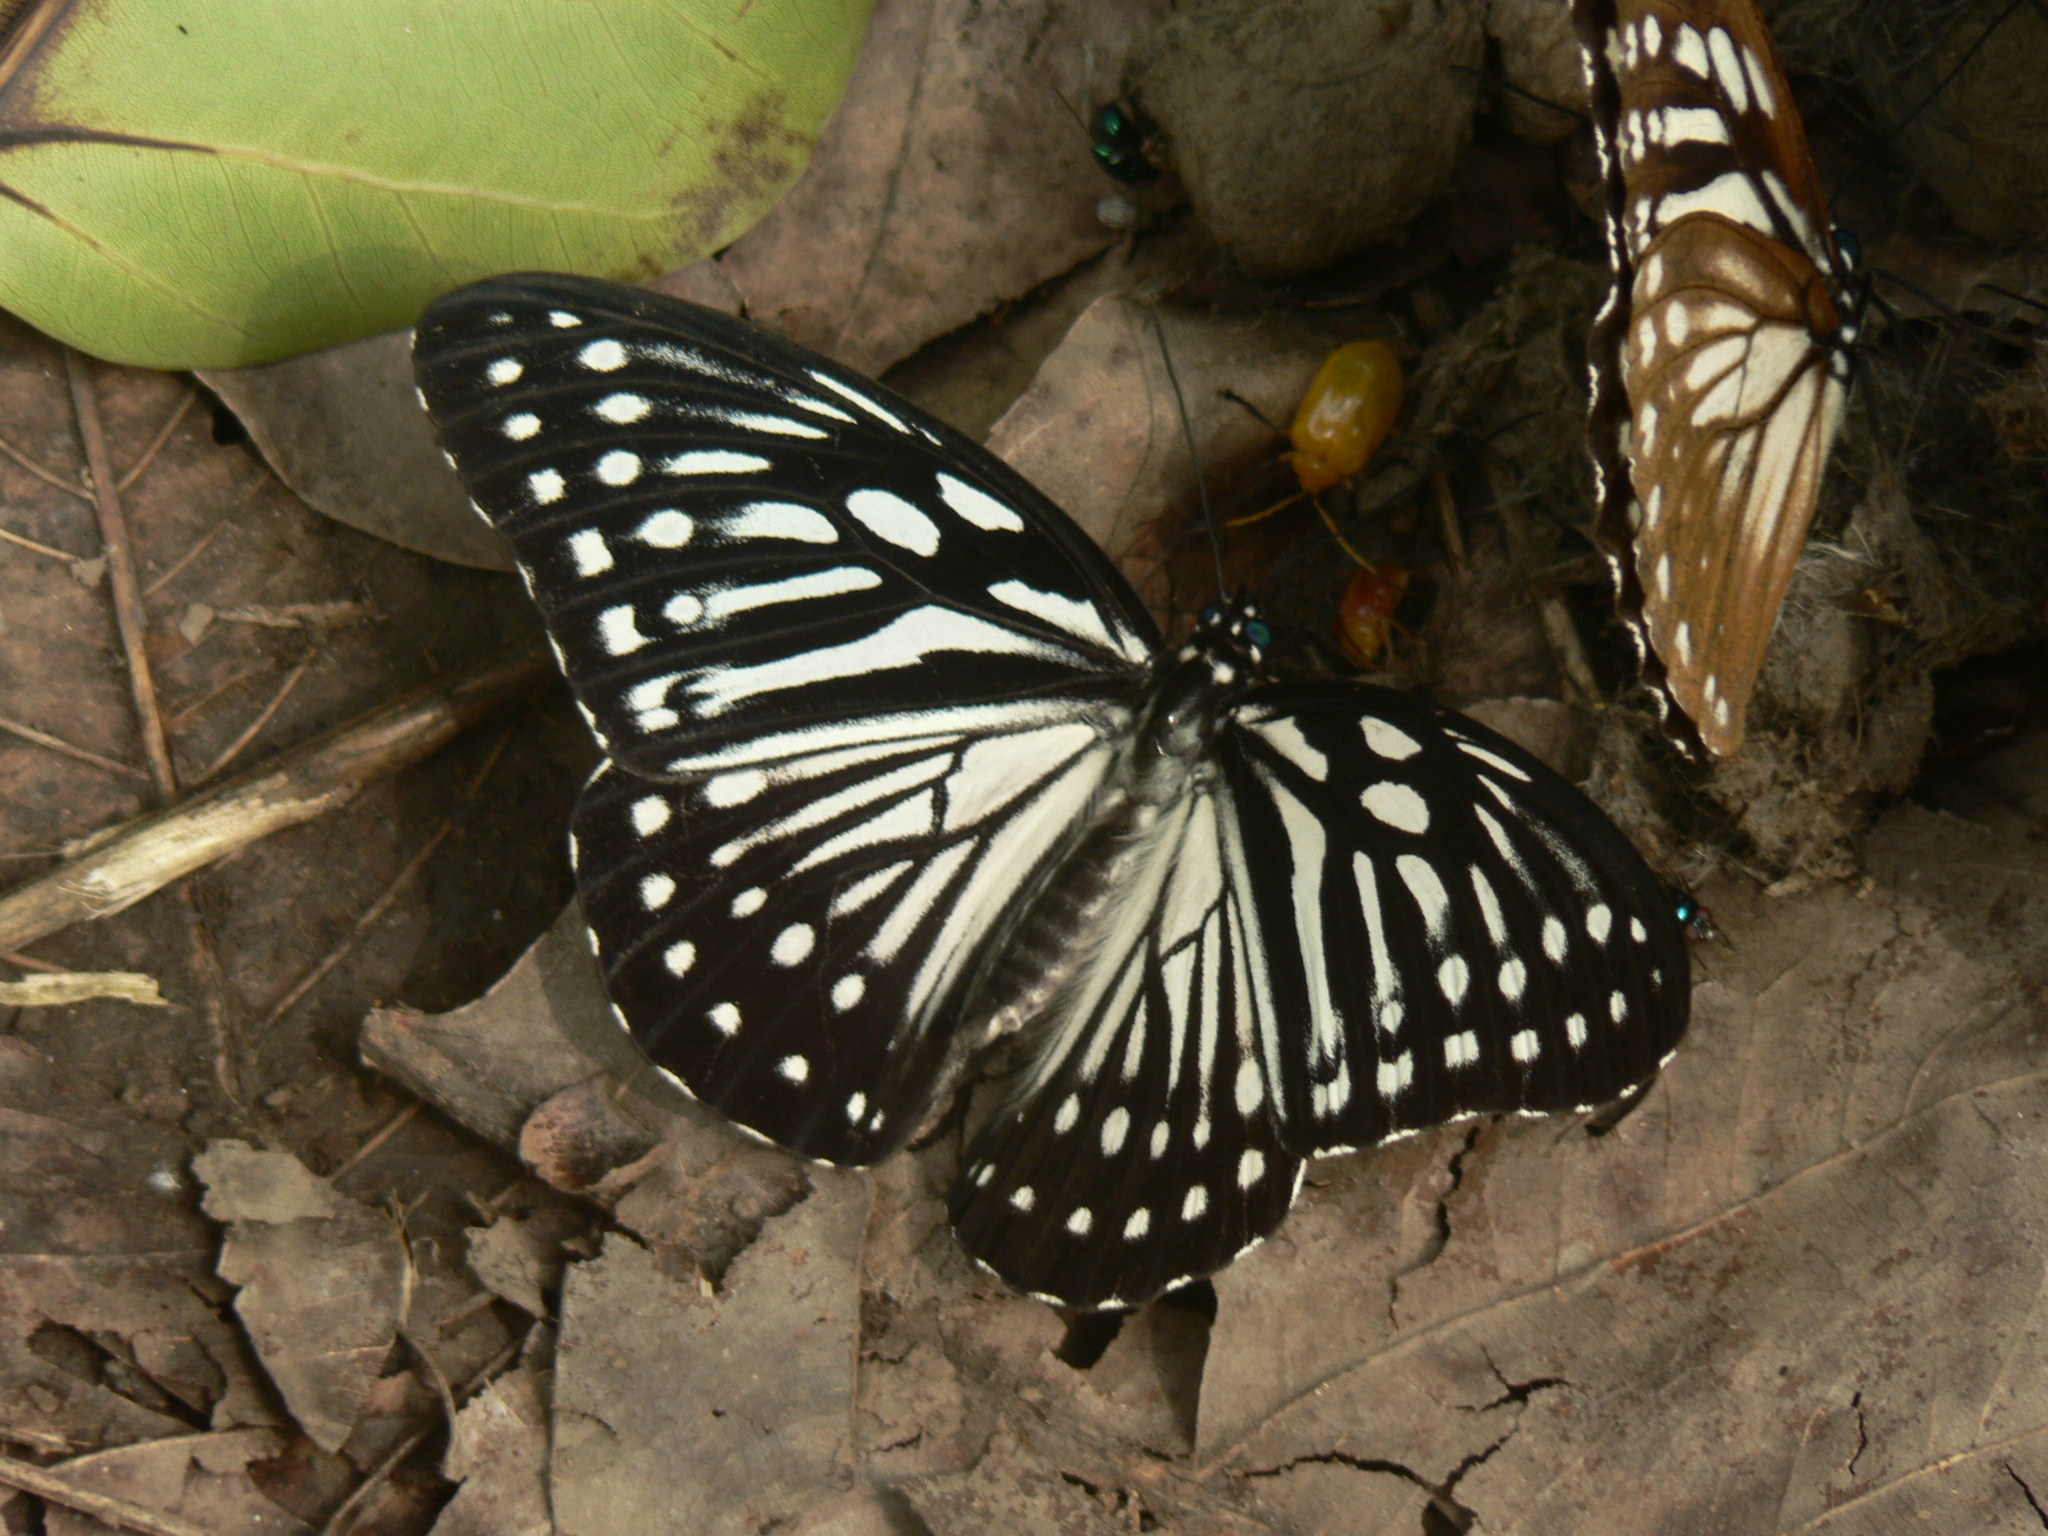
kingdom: Animalia
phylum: Arthropoda
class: Insecta
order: Lepidoptera
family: Nymphalidae
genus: Penthema
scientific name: Penthema lisarda
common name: Yellow kaiser
